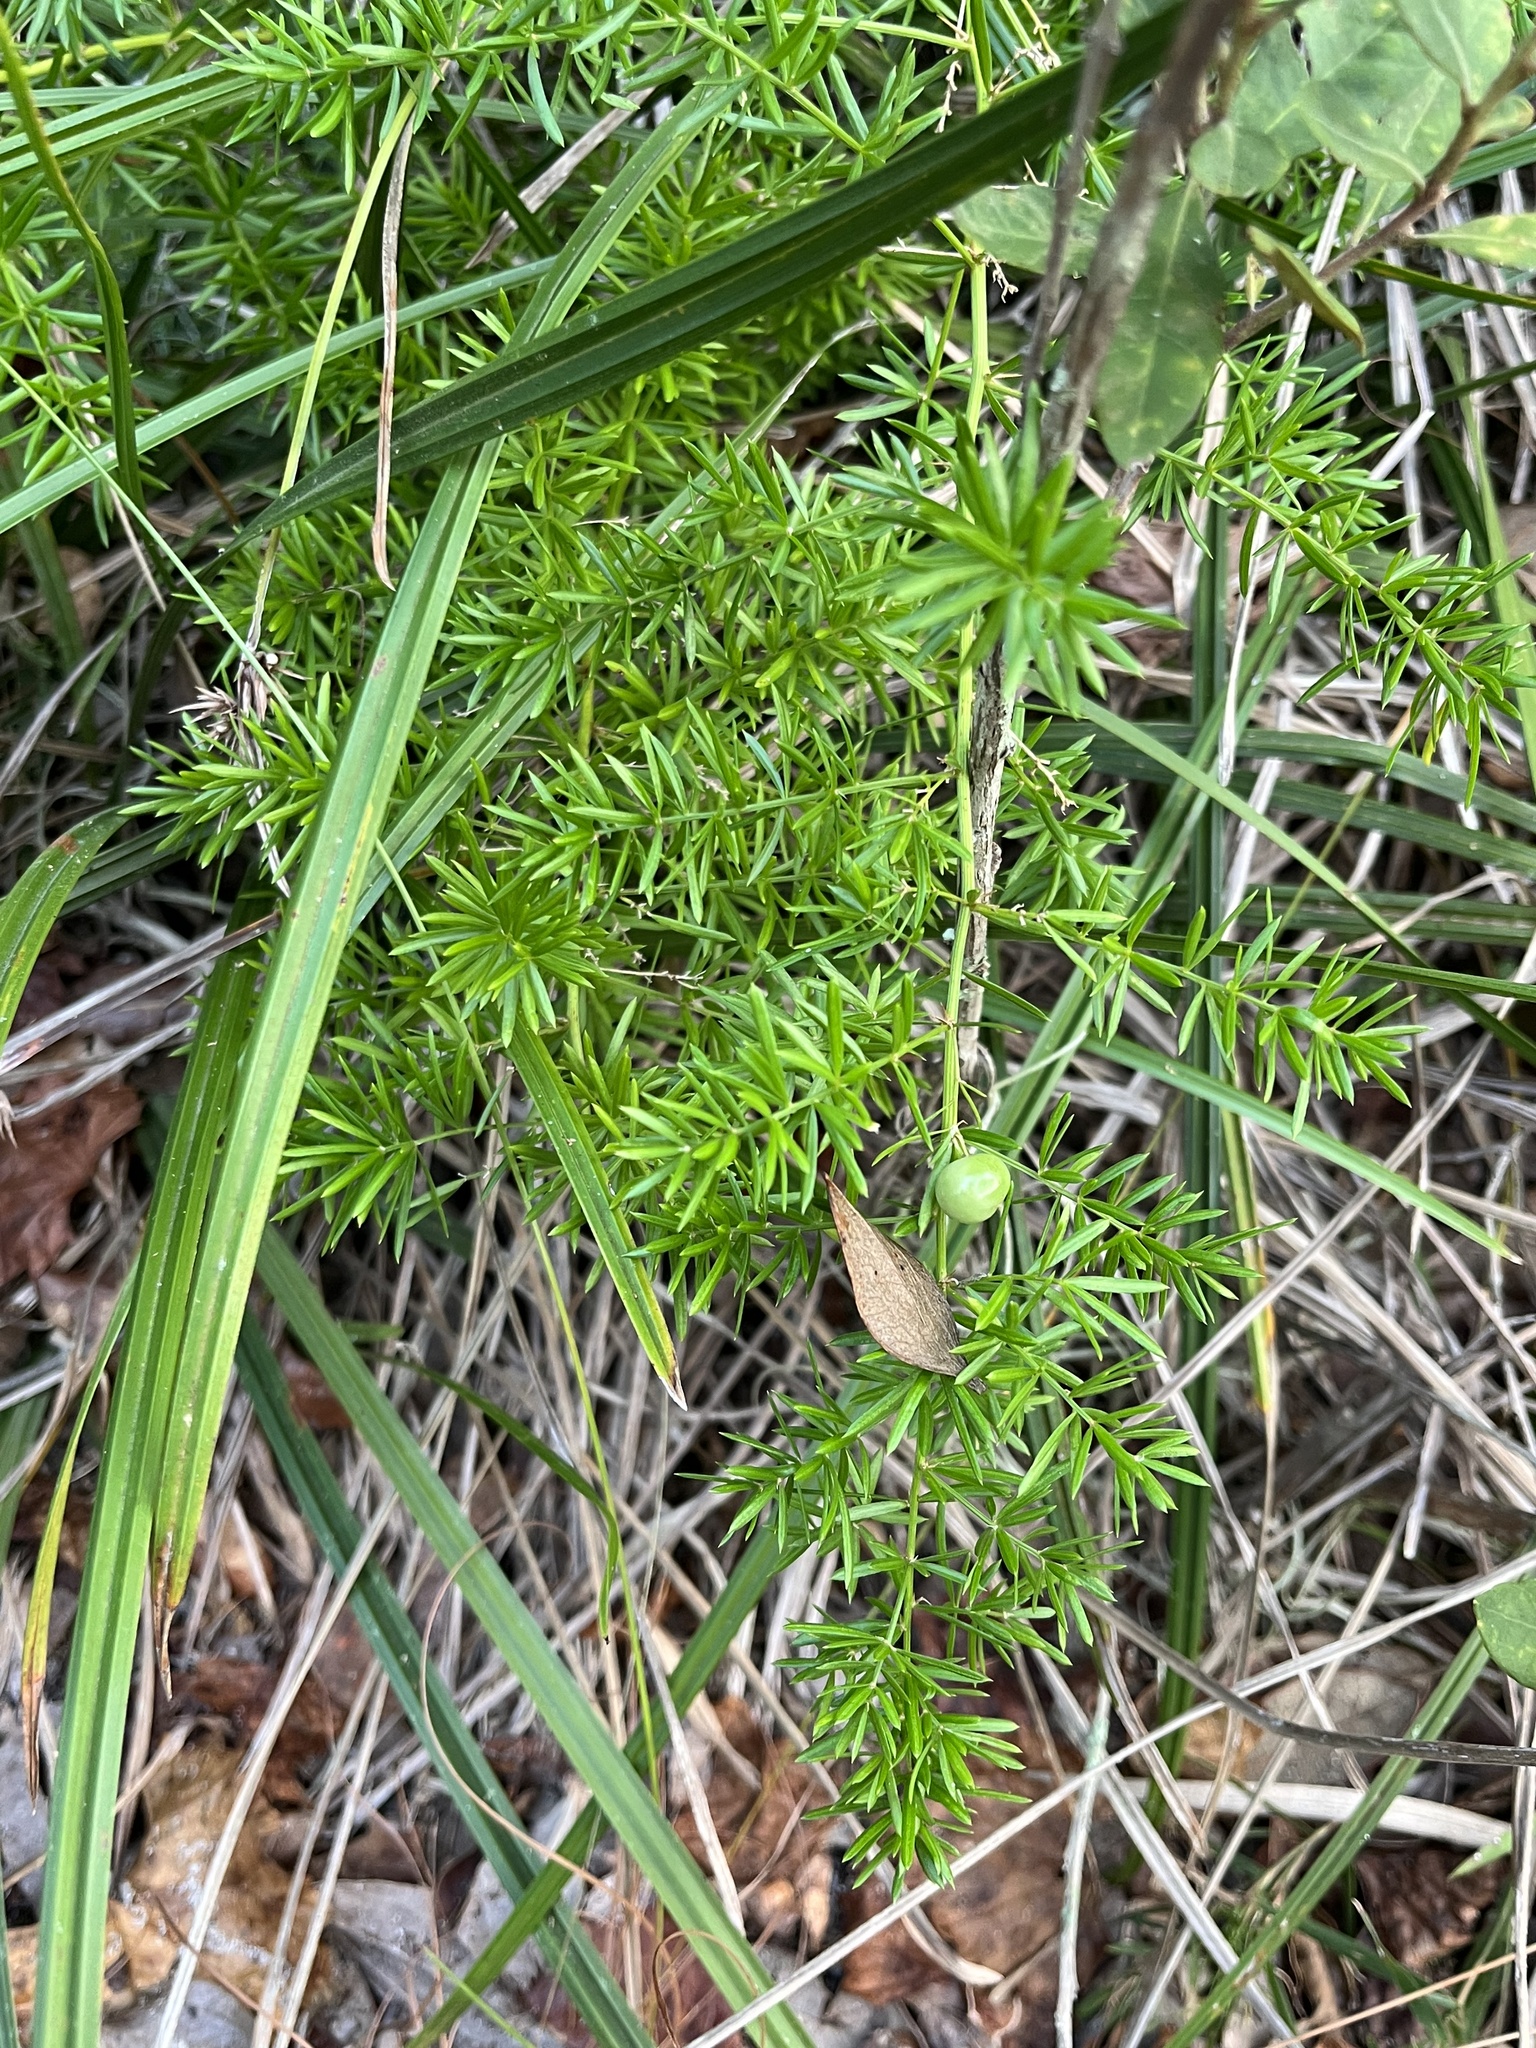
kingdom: Plantae
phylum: Tracheophyta
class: Liliopsida
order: Asparagales
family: Asparagaceae
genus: Asparagus
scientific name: Asparagus aethiopicus
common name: Sprenger's asparagus fern
